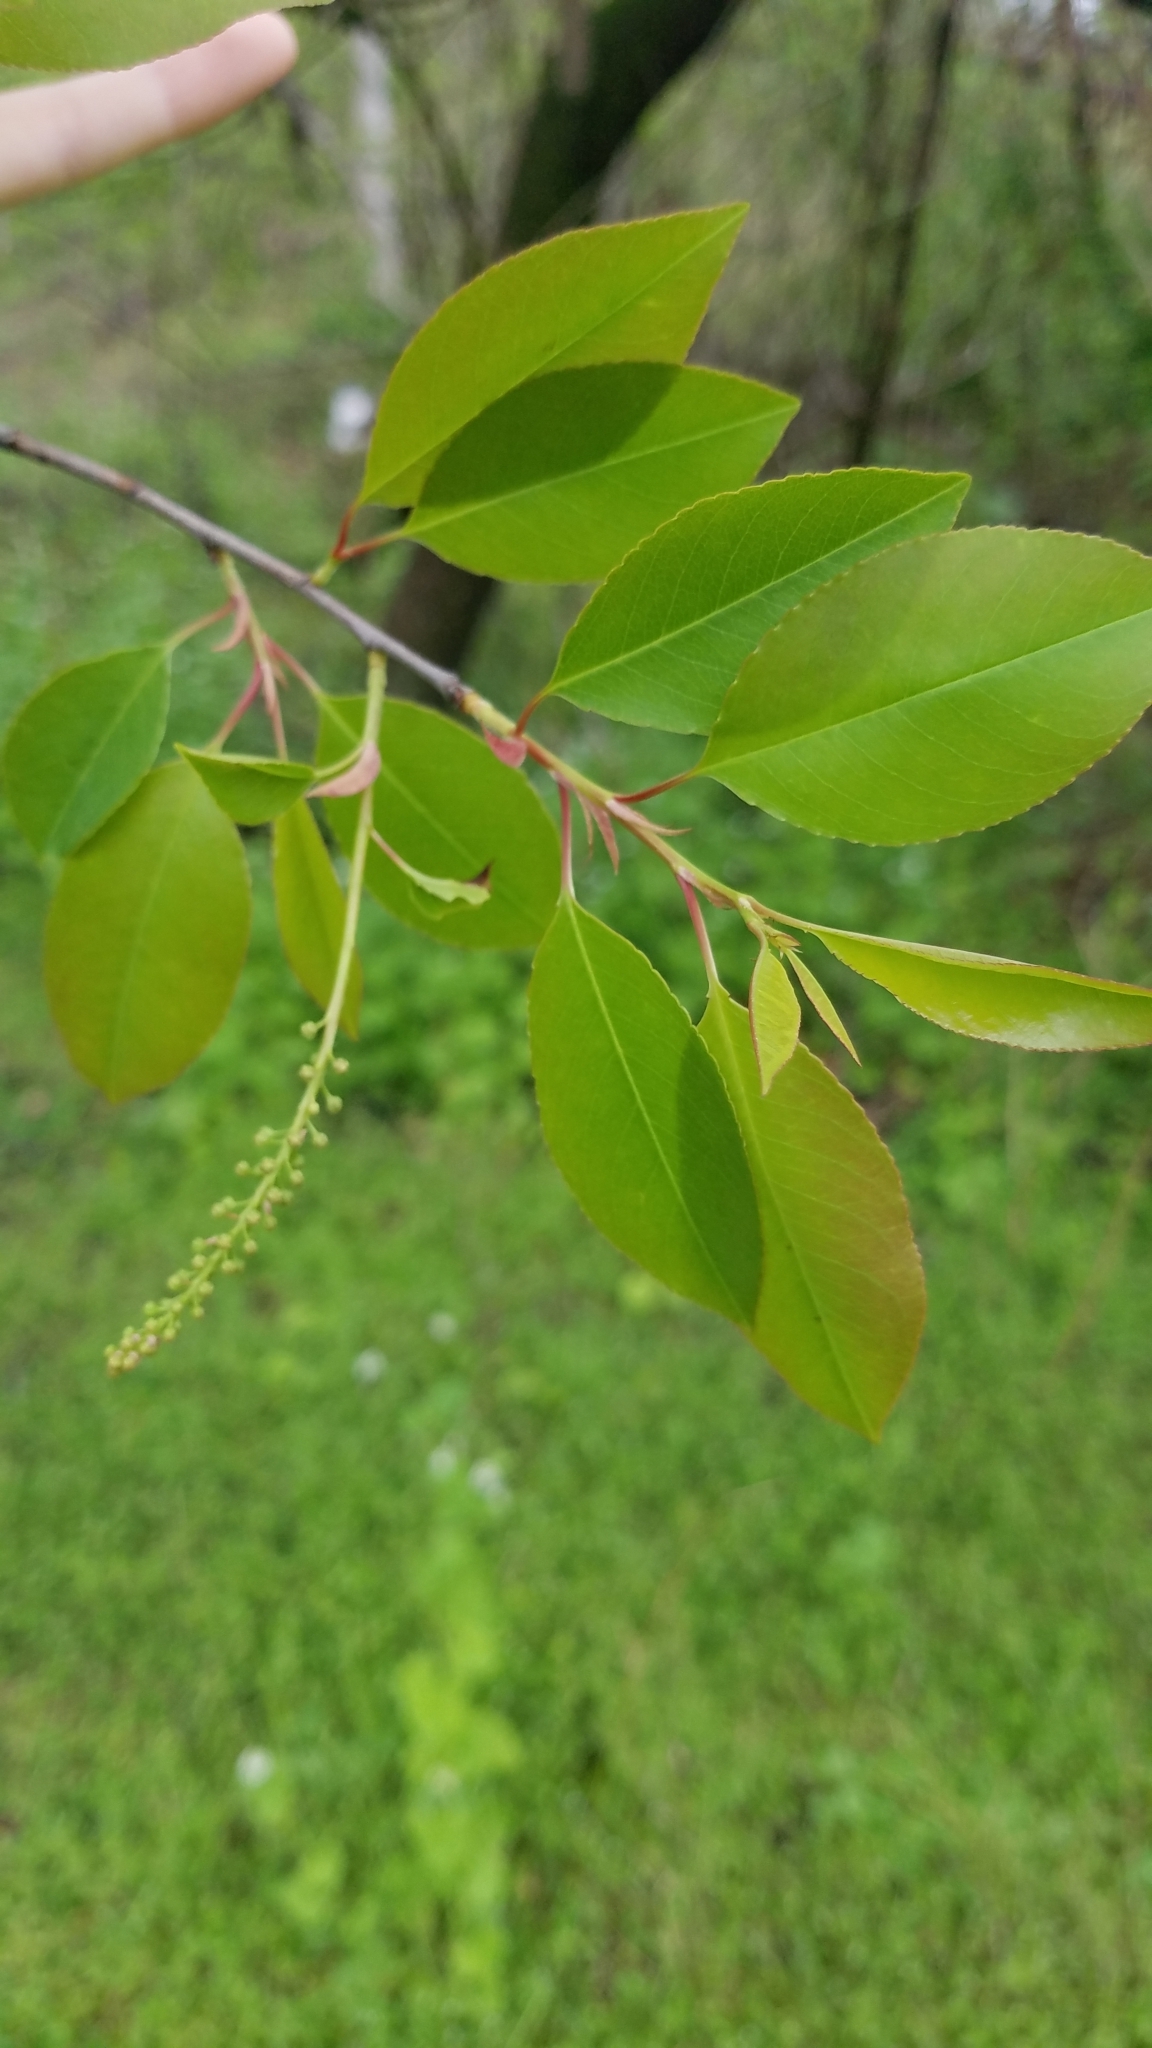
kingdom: Plantae
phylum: Tracheophyta
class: Magnoliopsida
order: Rosales
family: Rosaceae
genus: Prunus
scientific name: Prunus serotina
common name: Black cherry
